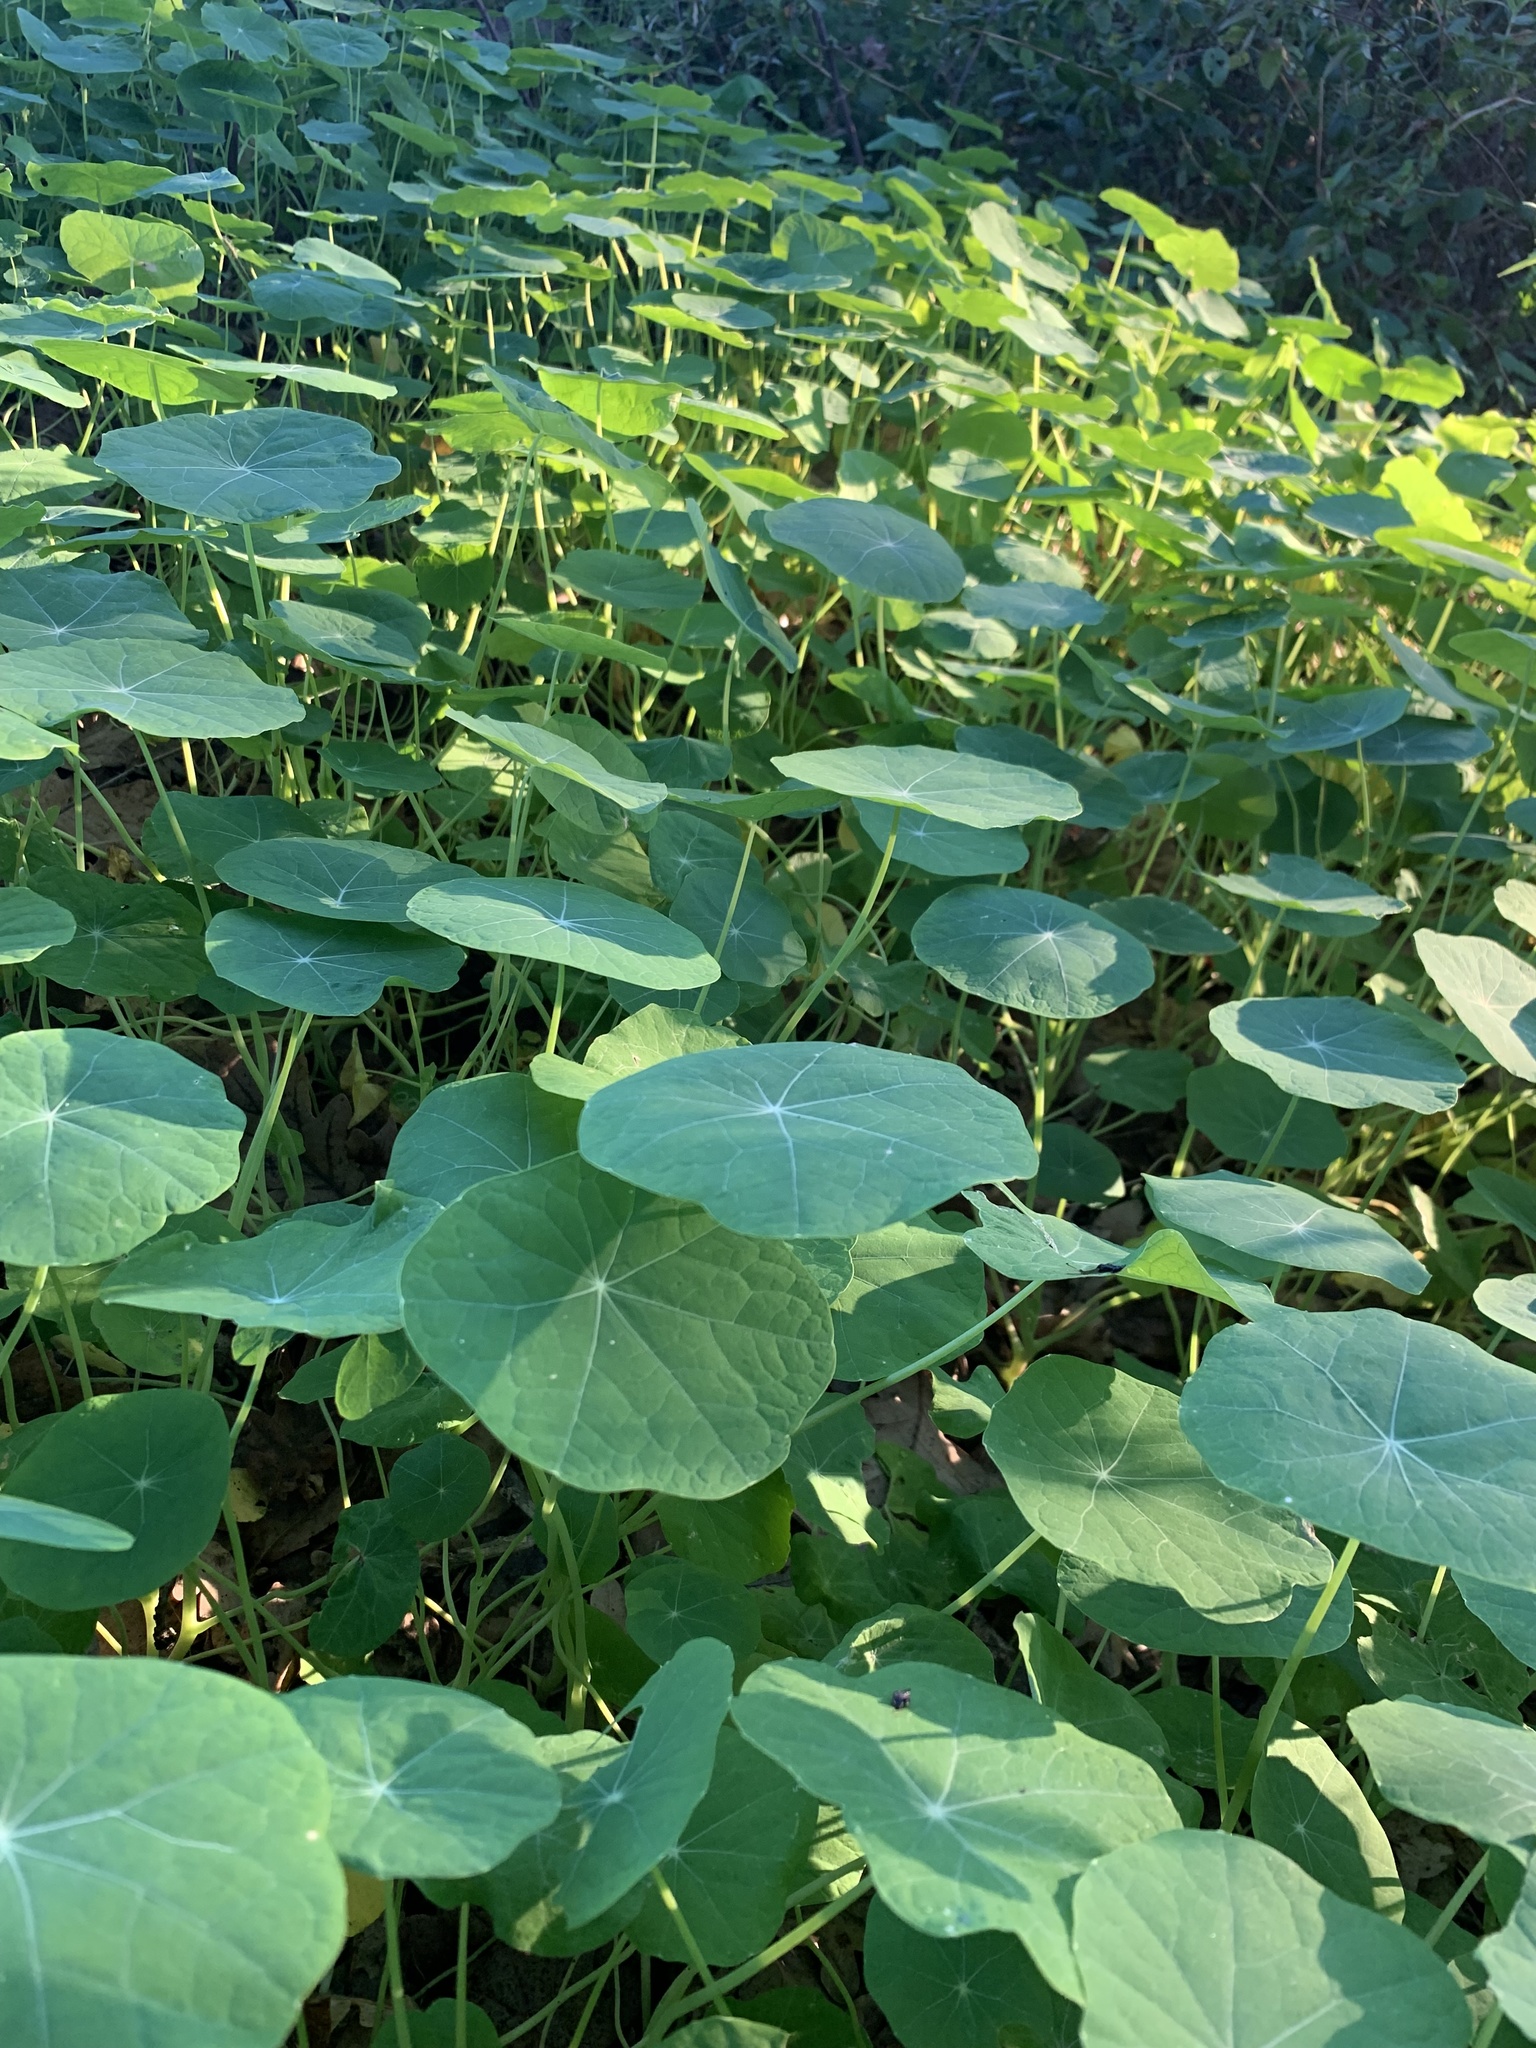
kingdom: Plantae
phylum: Tracheophyta
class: Magnoliopsida
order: Brassicales
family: Tropaeolaceae
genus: Tropaeolum
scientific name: Tropaeolum majus
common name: Nasturtium
